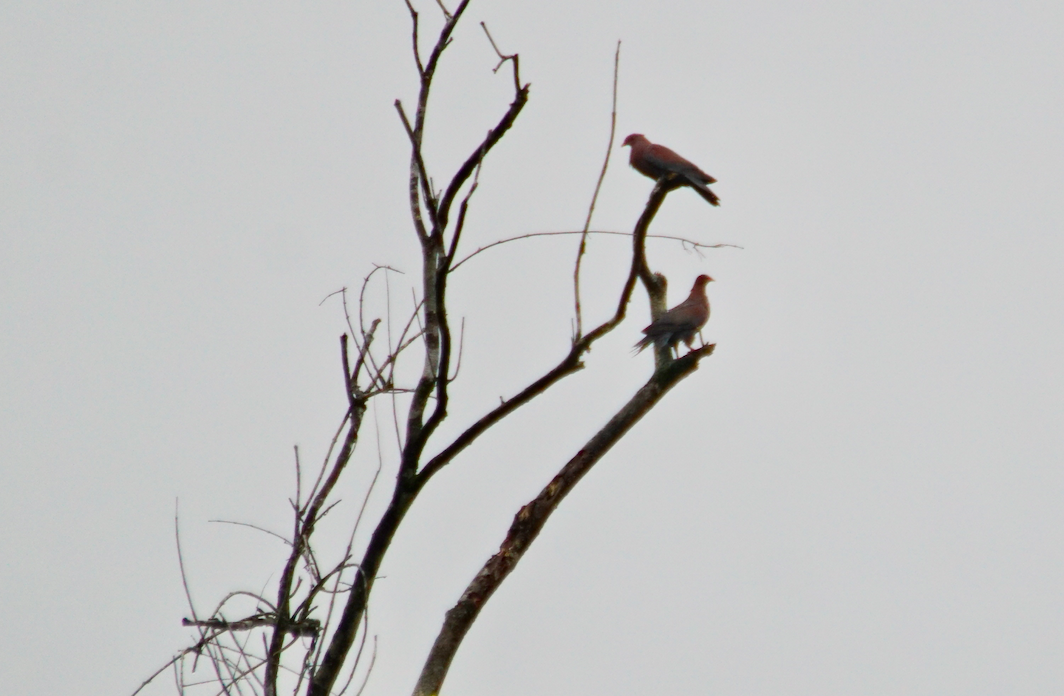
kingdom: Animalia
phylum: Chordata
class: Aves
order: Columbiformes
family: Columbidae
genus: Patagioenas
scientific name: Patagioenas flavirostris
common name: Red-billed pigeon
